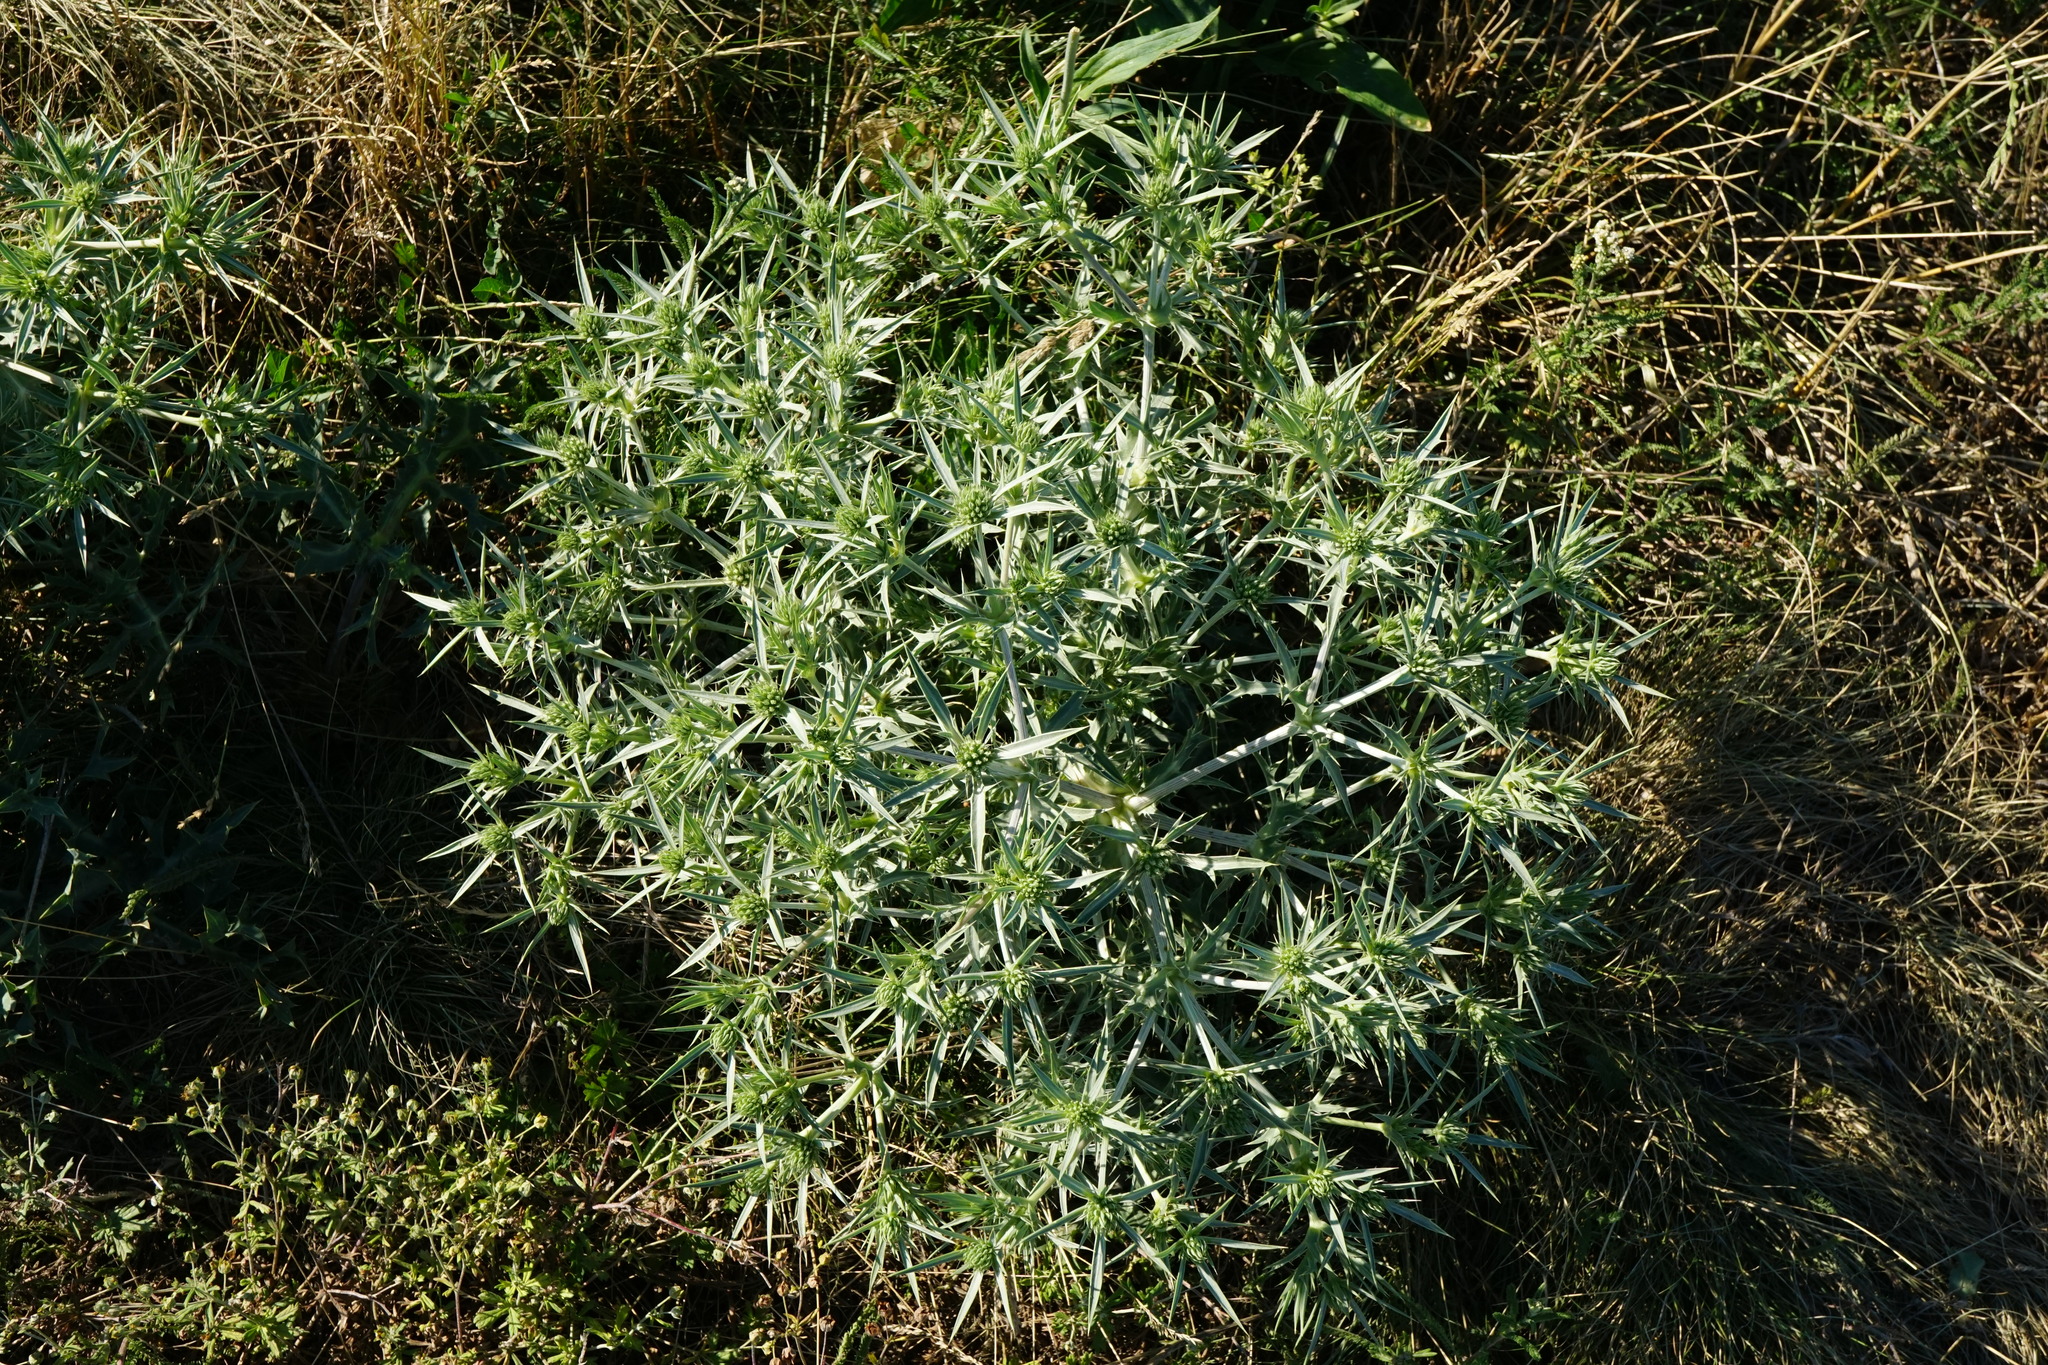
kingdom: Plantae
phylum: Tracheophyta
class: Magnoliopsida
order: Apiales
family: Apiaceae
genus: Eryngium
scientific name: Eryngium campestre
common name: Field eryngo
